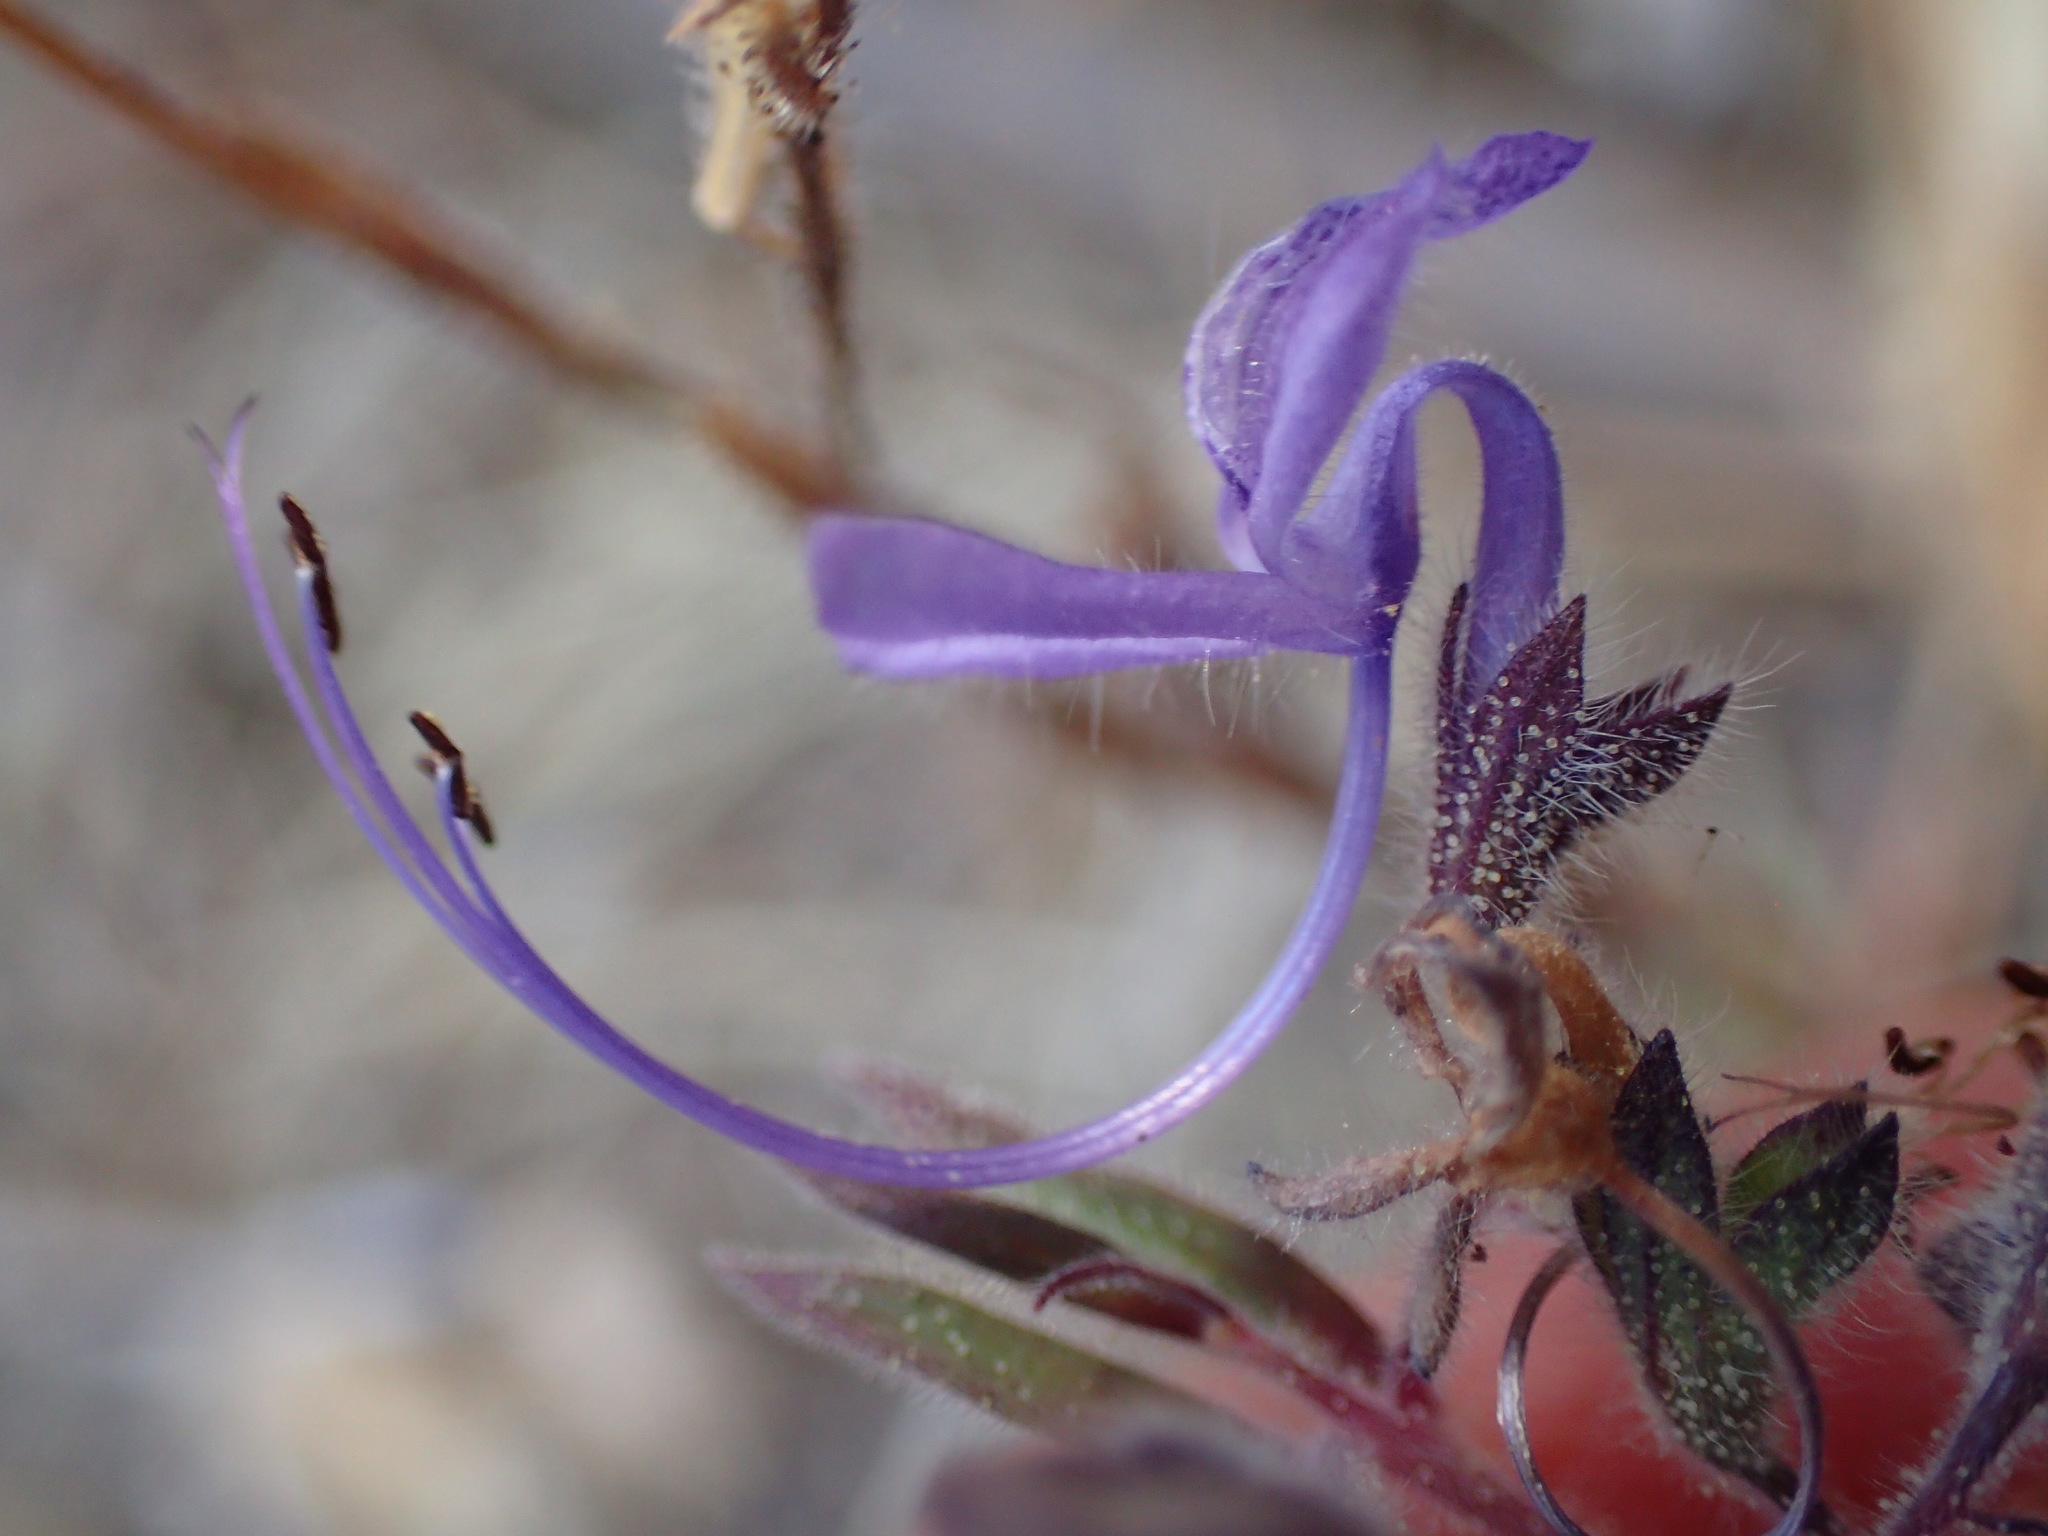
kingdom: Plantae
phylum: Tracheophyta
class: Magnoliopsida
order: Lamiales
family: Lamiaceae
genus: Trichostema
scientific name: Trichostema lanceolatum
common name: Vinegar-weed
